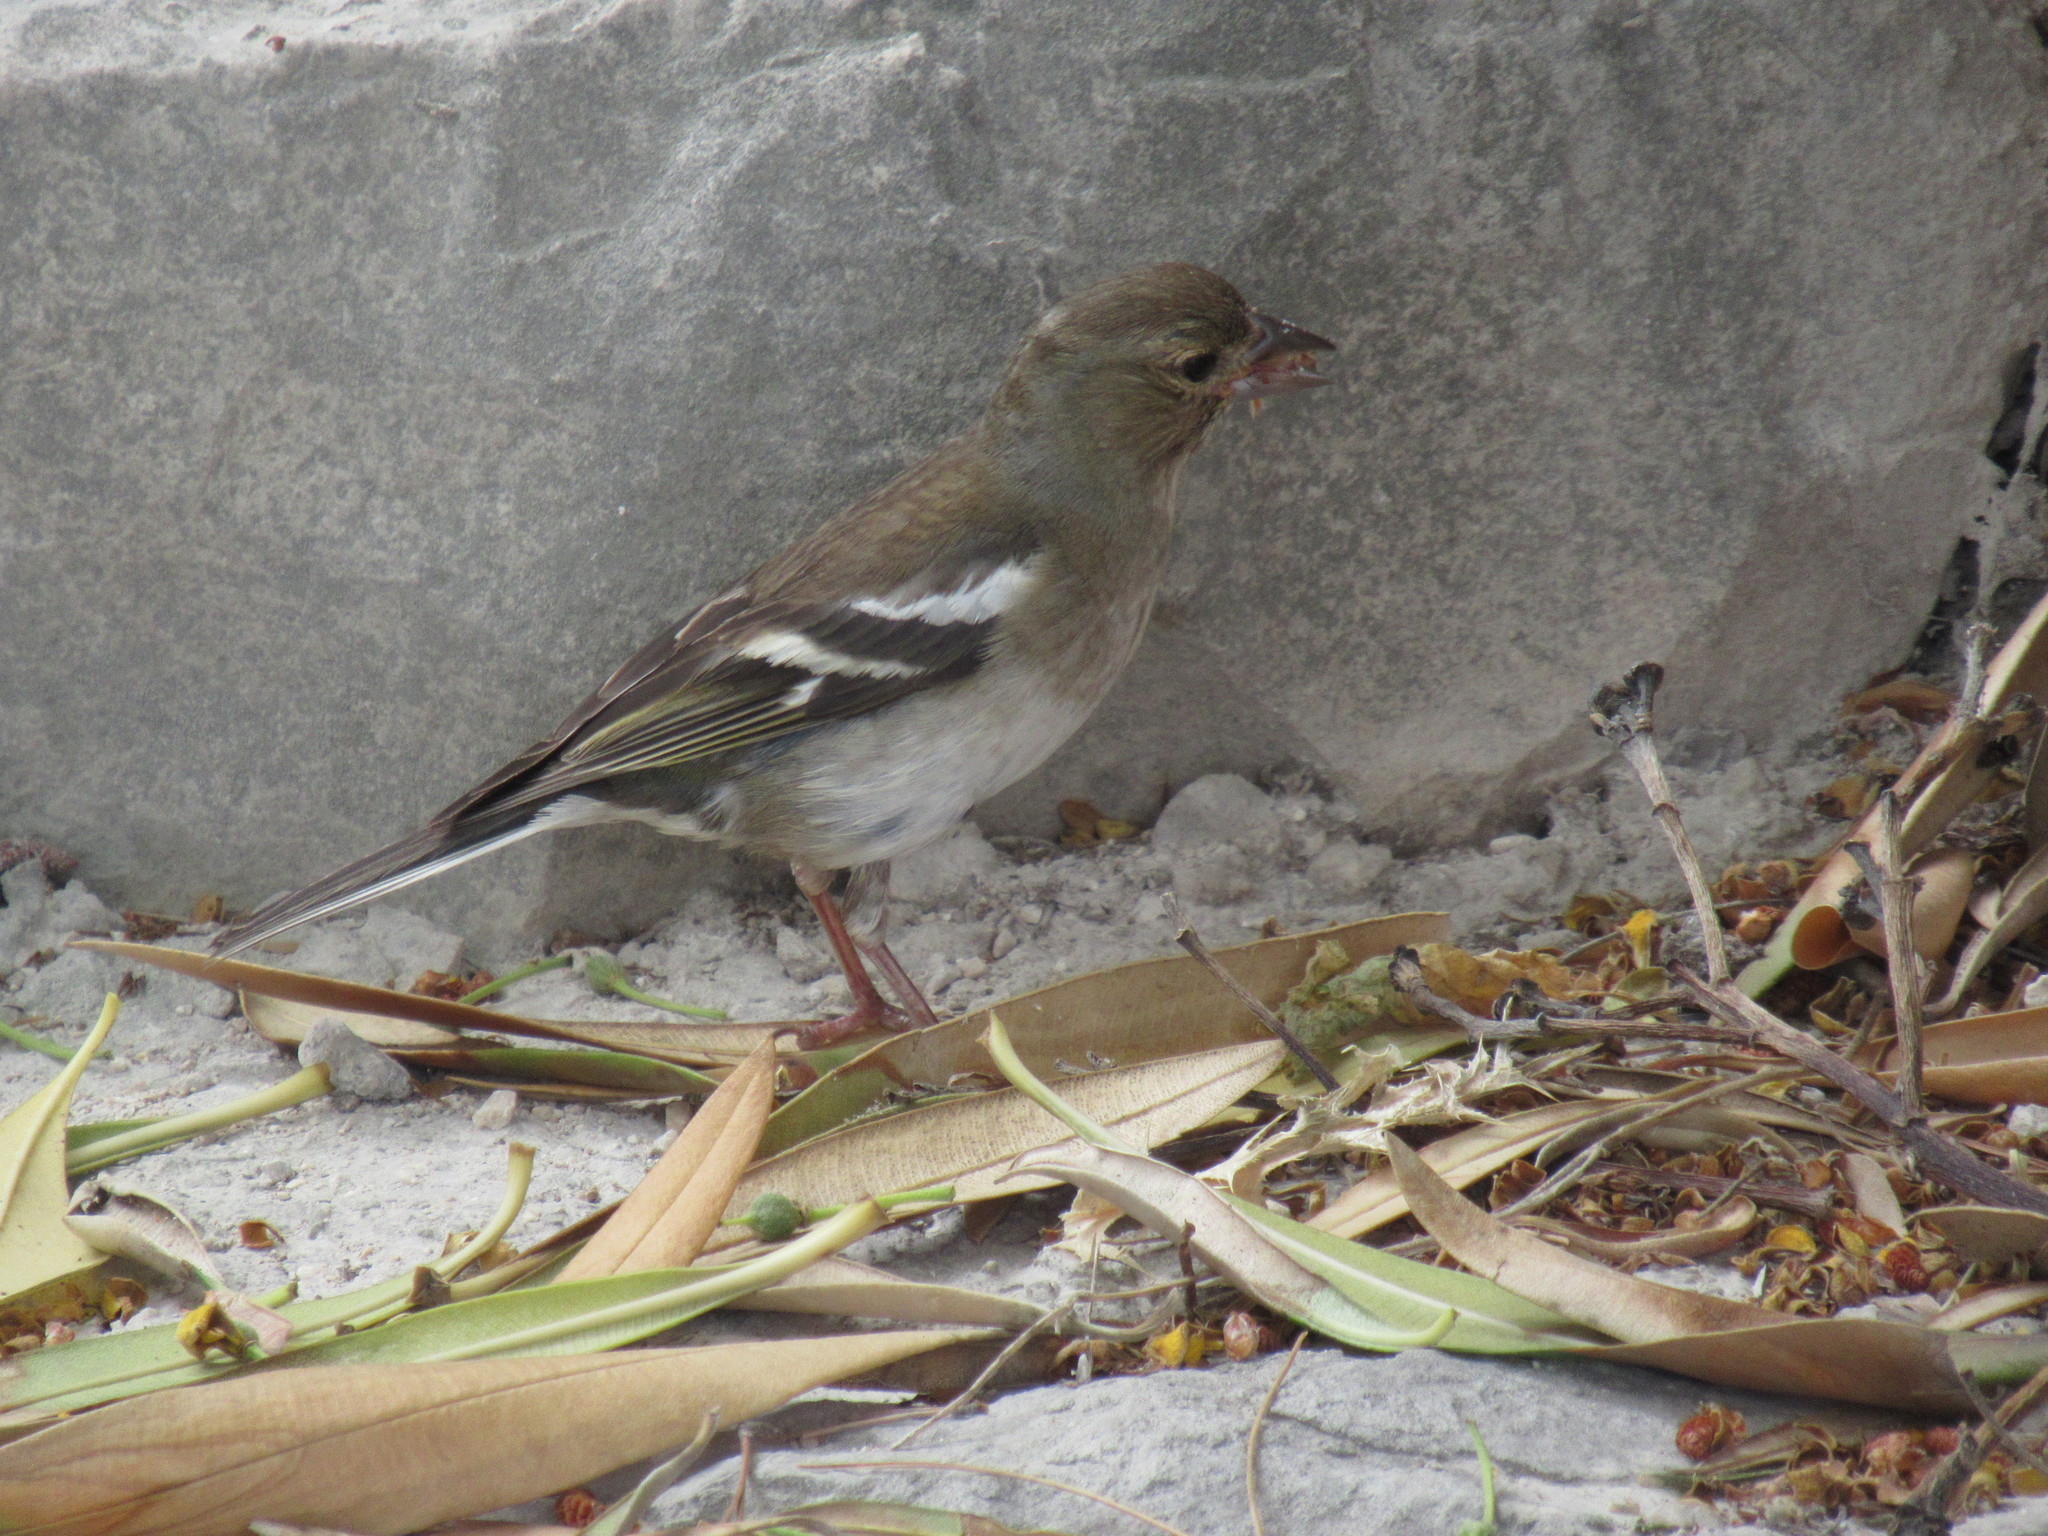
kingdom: Animalia
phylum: Chordata
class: Aves
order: Passeriformes
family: Fringillidae
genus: Fringilla
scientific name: Fringilla coelebs
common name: Common chaffinch
